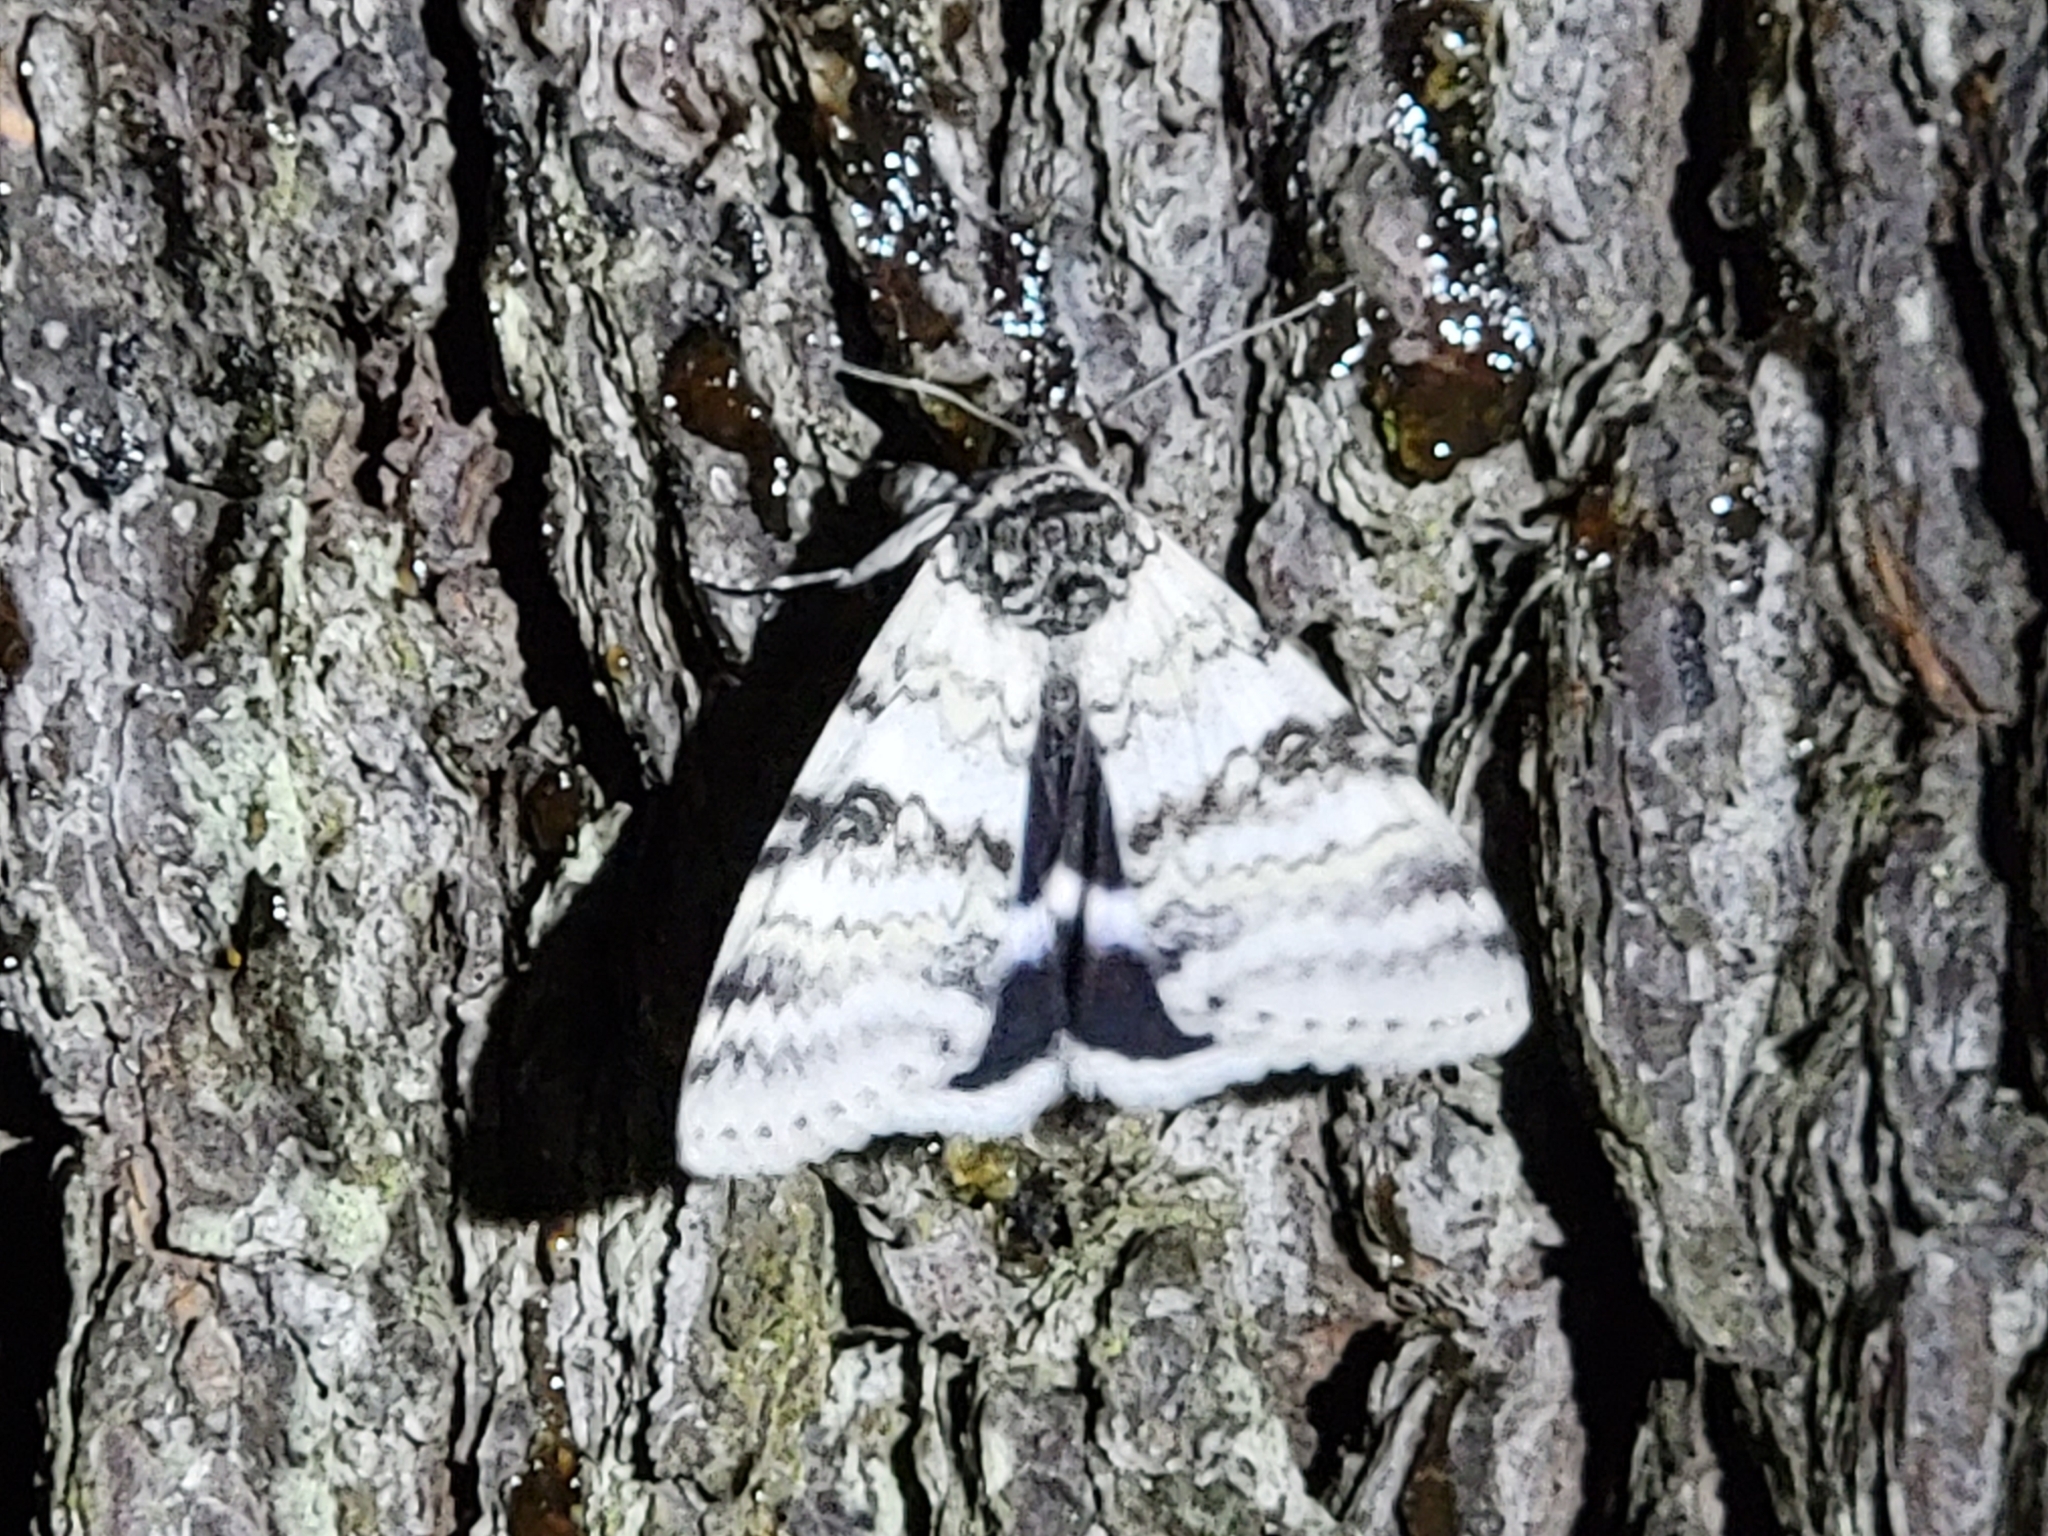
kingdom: Animalia
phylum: Arthropoda
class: Insecta
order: Lepidoptera
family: Erebidae
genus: Catocala
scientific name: Catocala relicta
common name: White underwing
